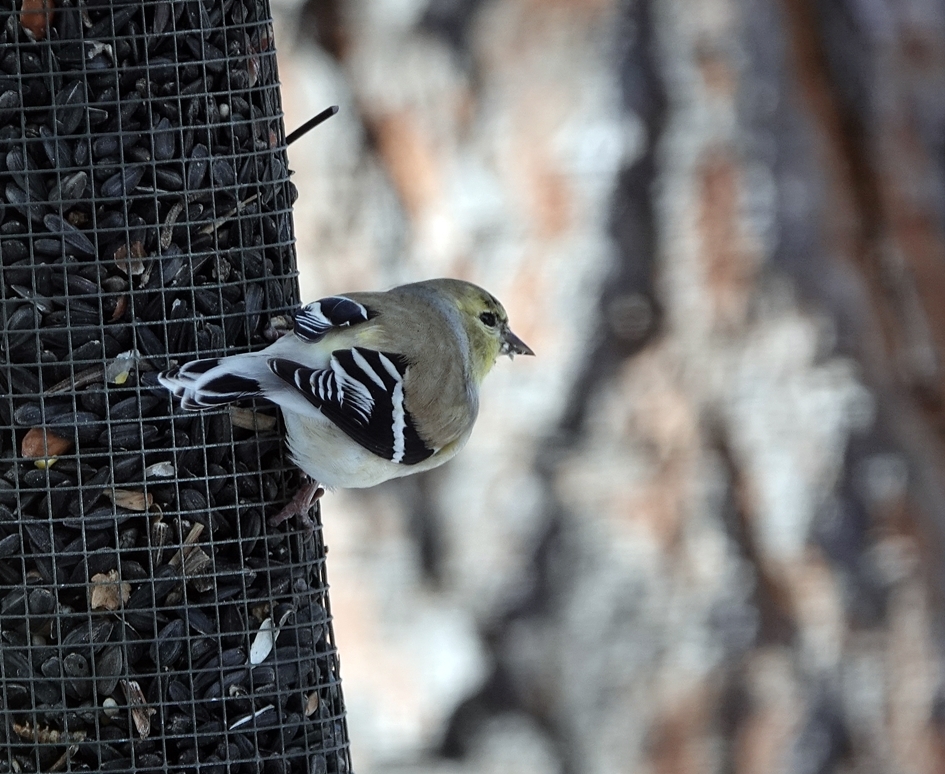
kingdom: Animalia
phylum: Chordata
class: Aves
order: Passeriformes
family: Fringillidae
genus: Spinus
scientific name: Spinus tristis
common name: American goldfinch
